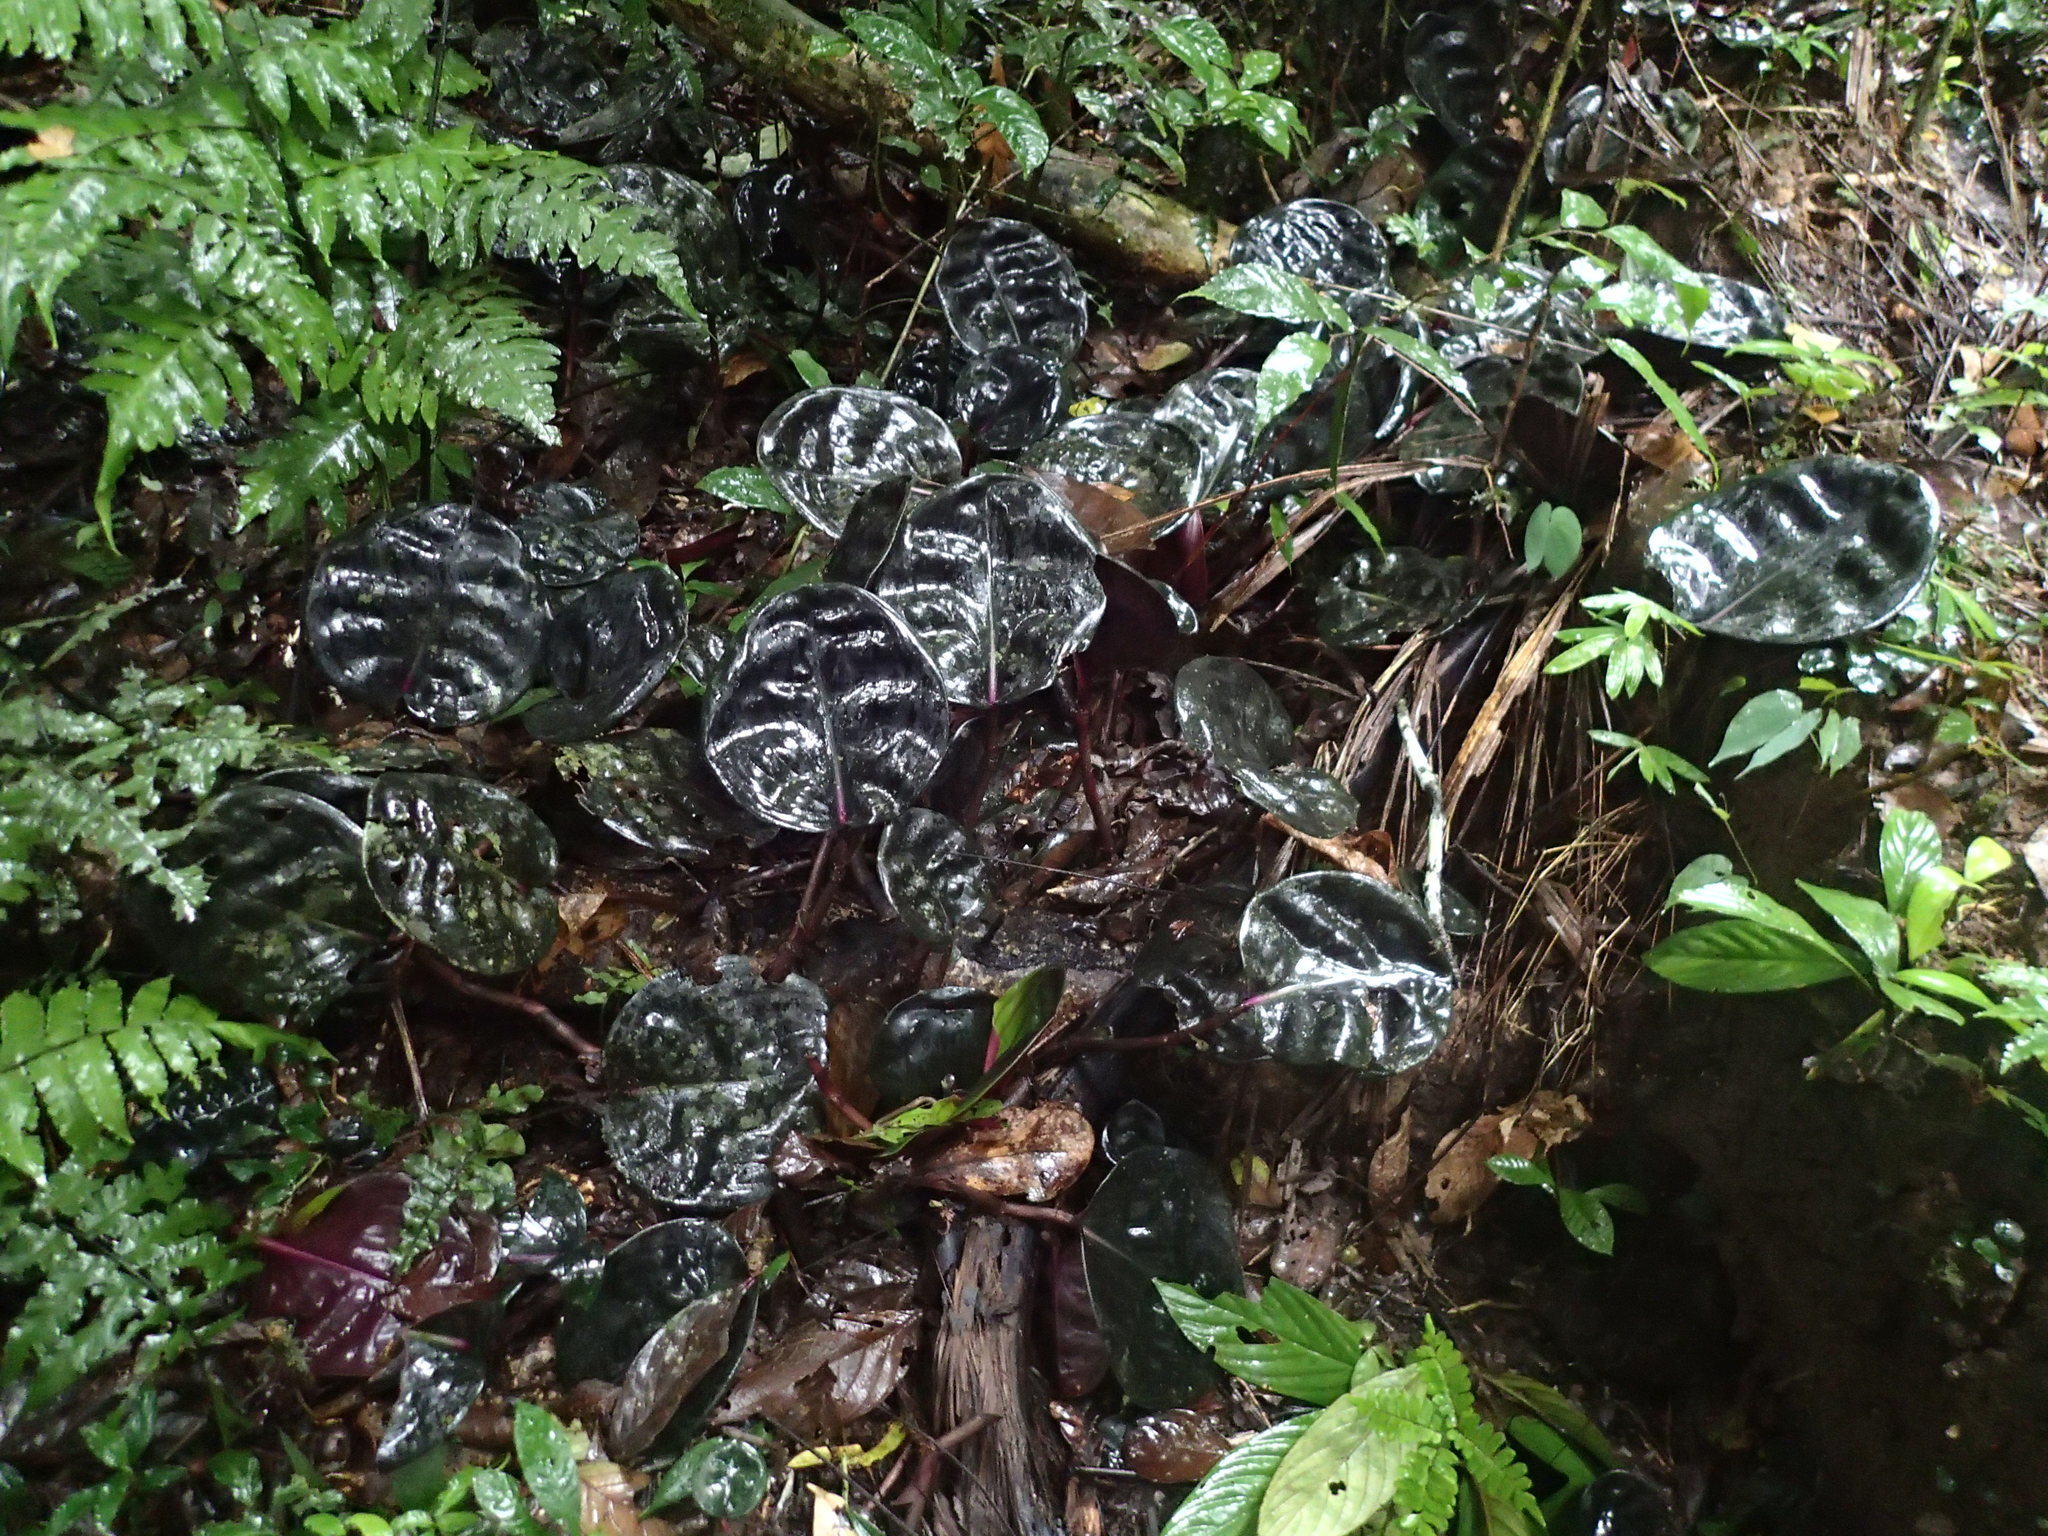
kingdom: Plantae
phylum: Tracheophyta
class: Liliopsida
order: Commelinales
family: Commelinaceae
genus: Geogenanthus
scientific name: Geogenanthus ciliatus
